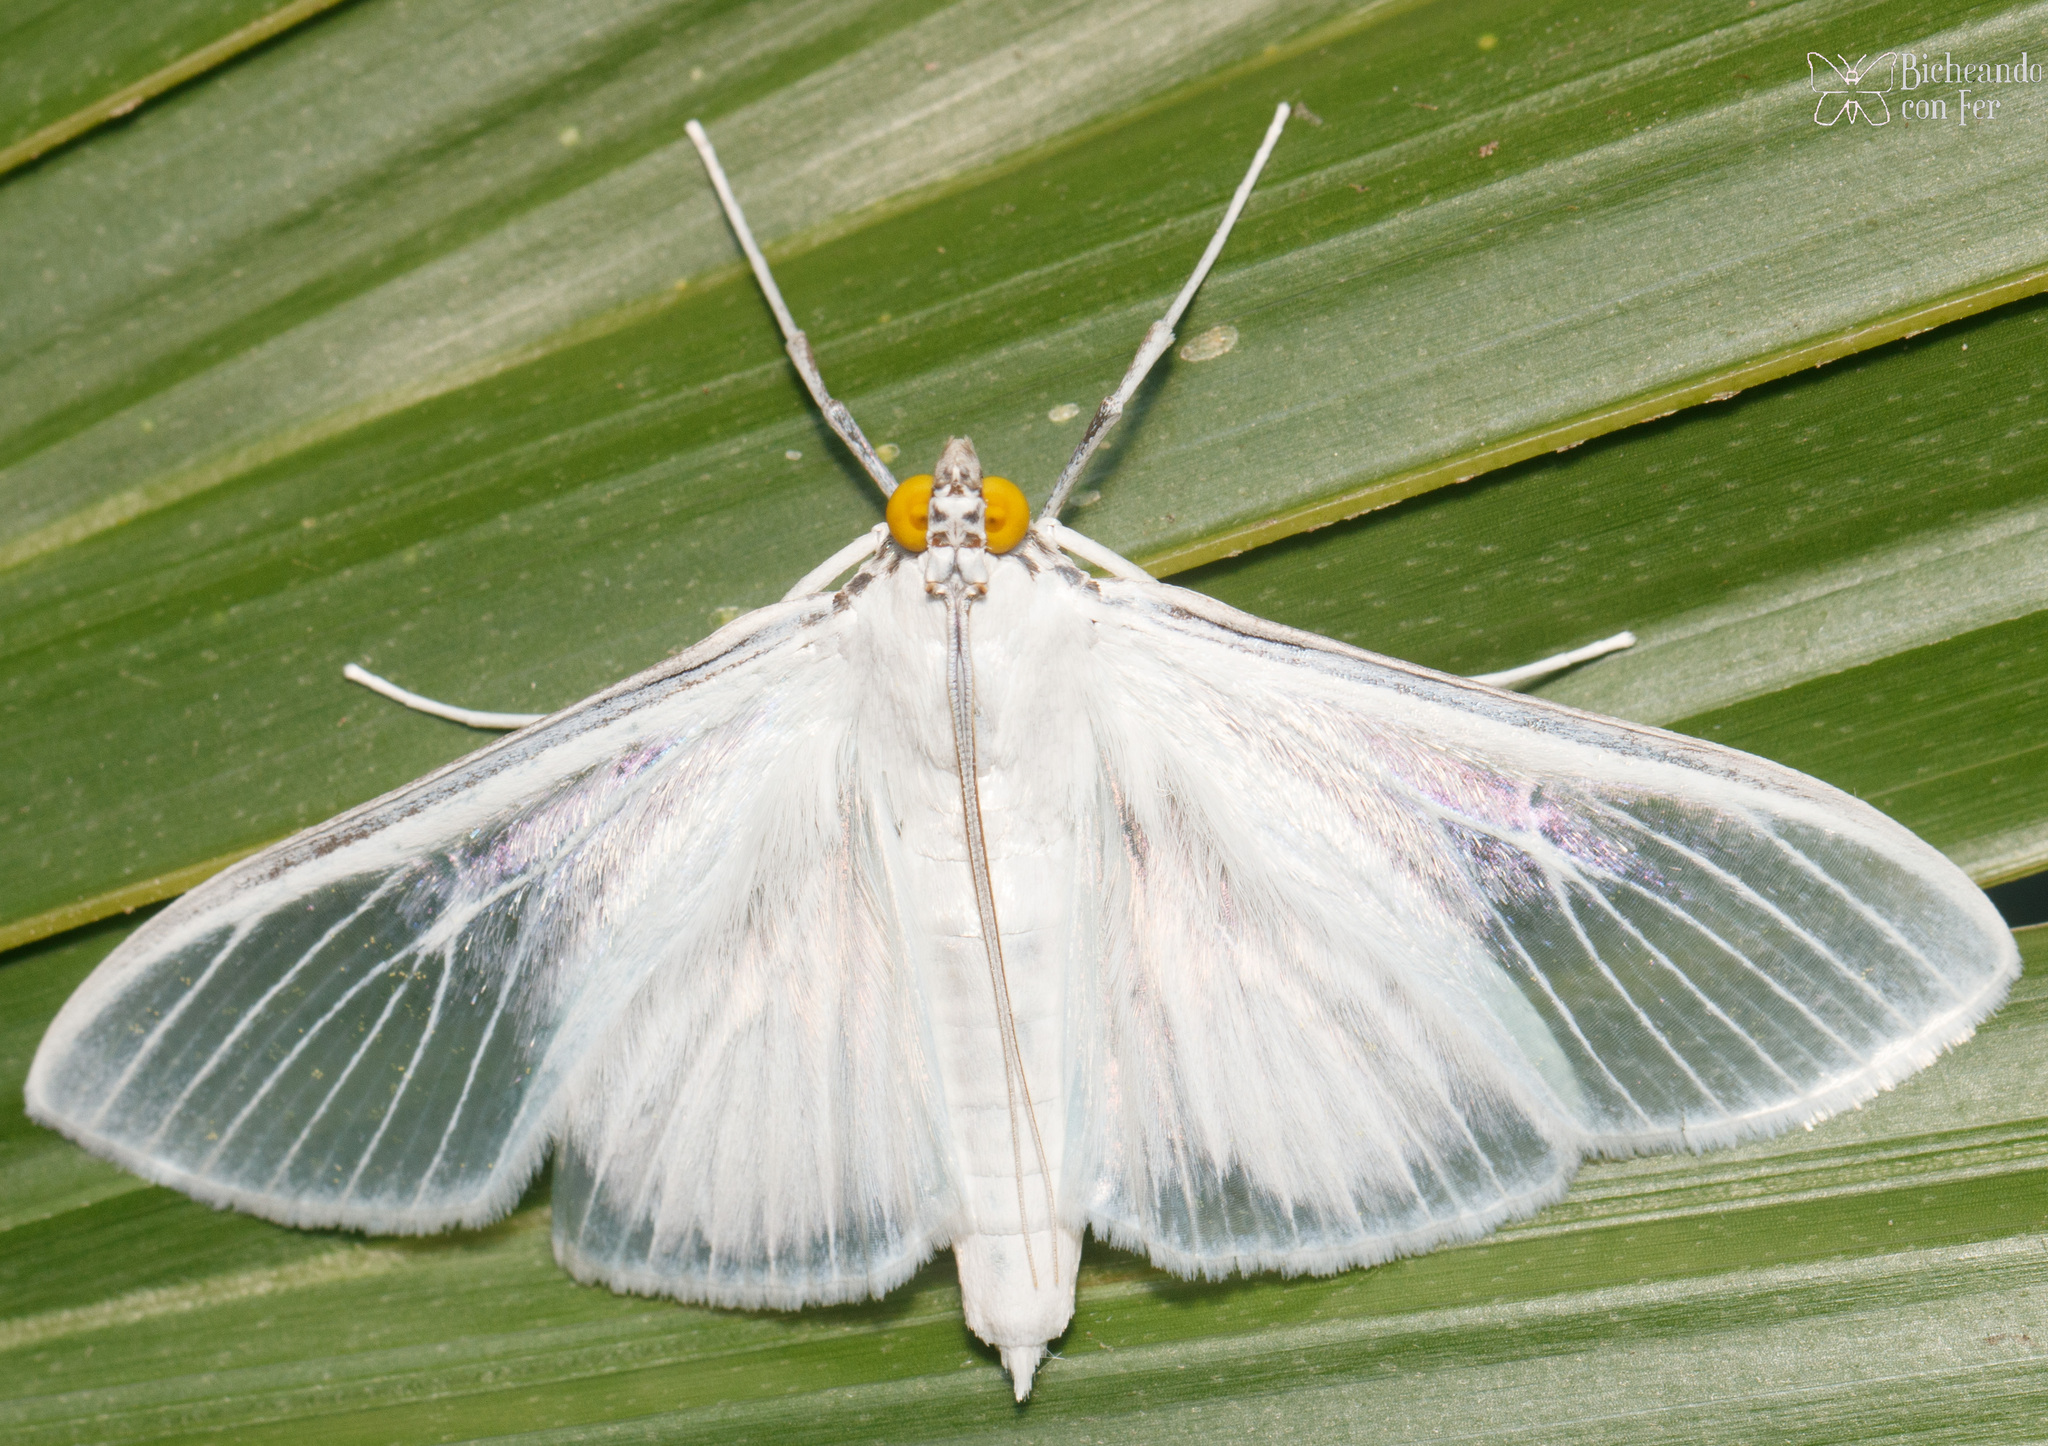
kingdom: Animalia
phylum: Arthropoda
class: Insecta
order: Lepidoptera
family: Crambidae
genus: Palpita
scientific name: Palpita flegia
